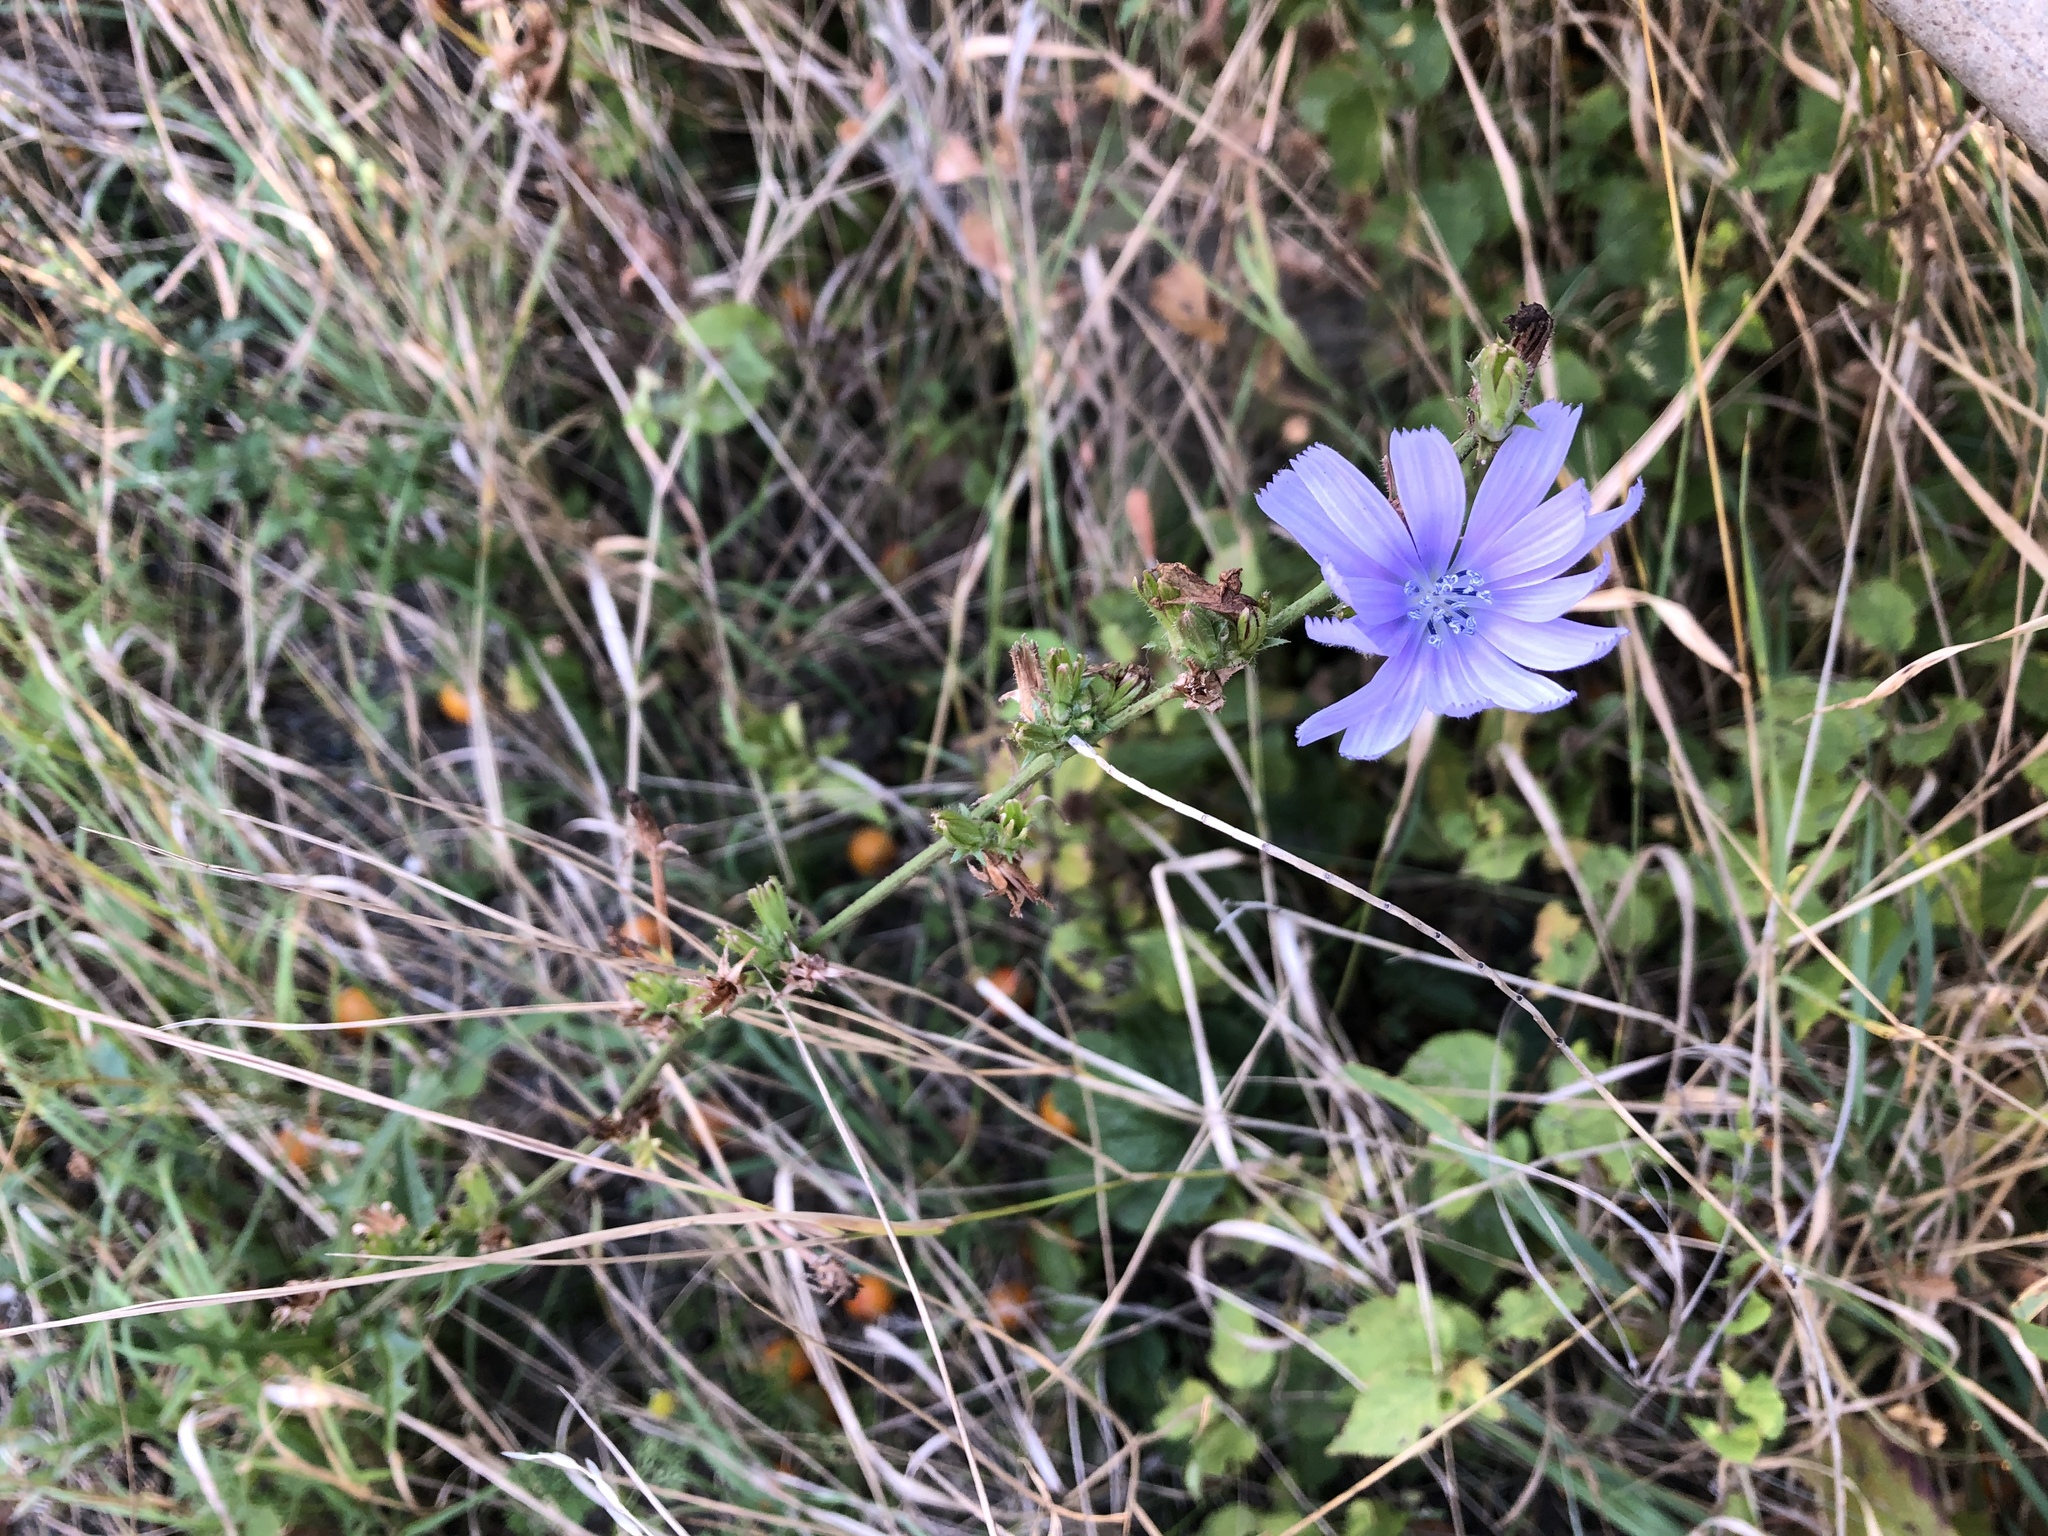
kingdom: Plantae
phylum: Tracheophyta
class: Magnoliopsida
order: Asterales
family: Asteraceae
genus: Cichorium
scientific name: Cichorium intybus
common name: Chicory
